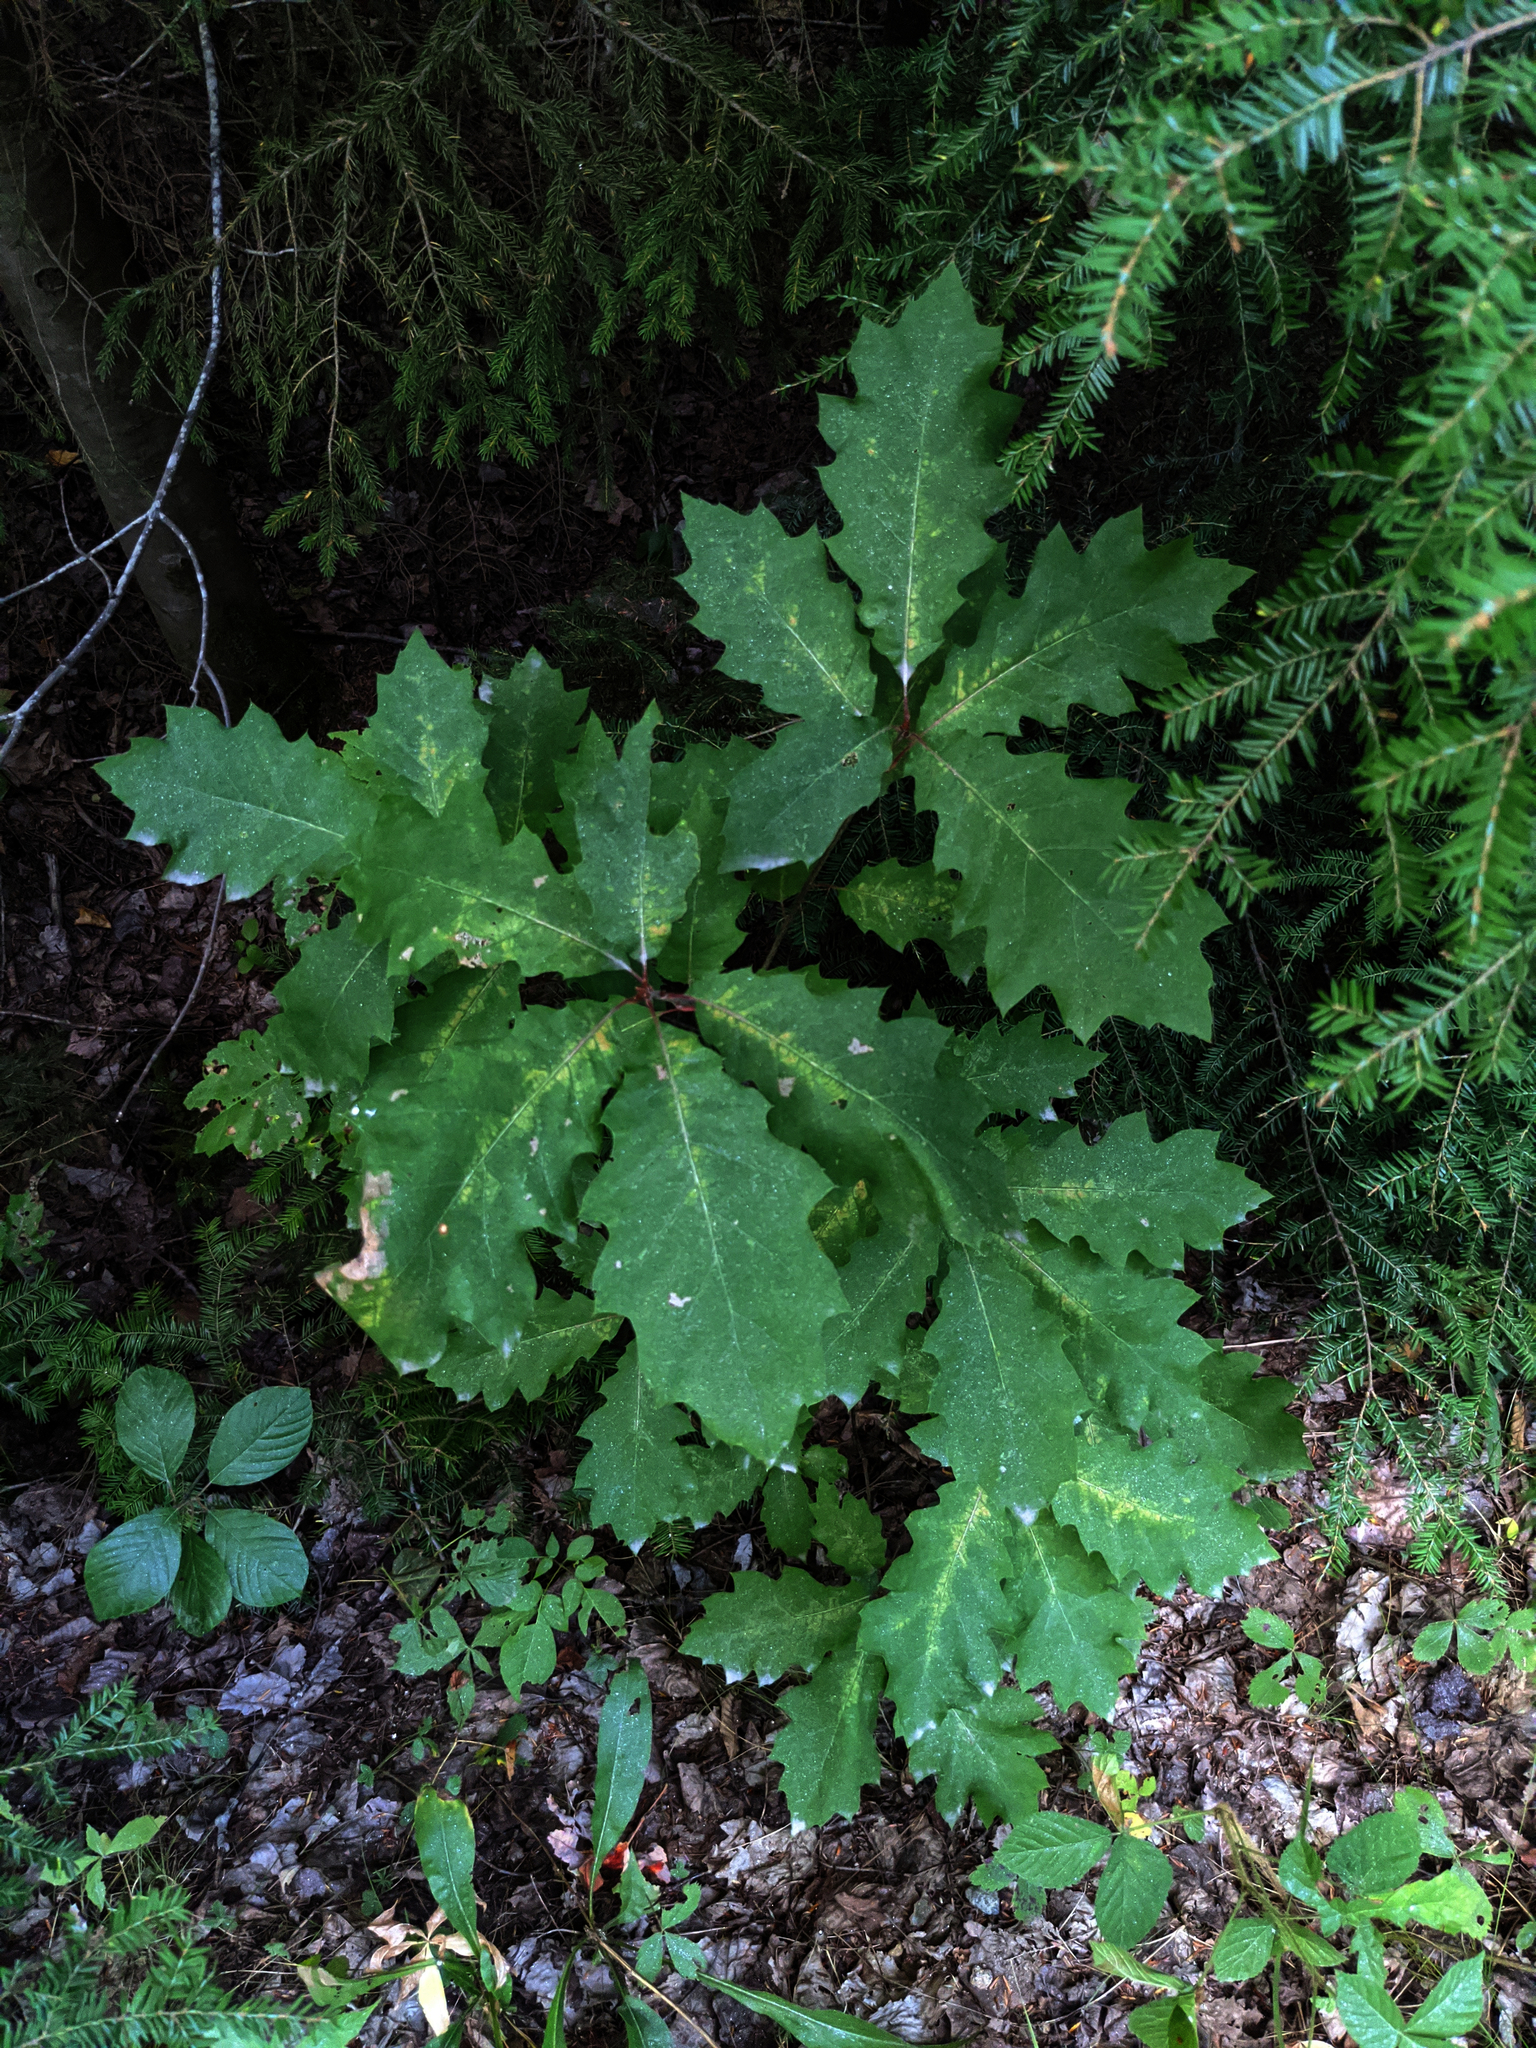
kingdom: Plantae
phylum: Tracheophyta
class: Pinopsida
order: Pinales
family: Pinaceae
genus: Tsuga
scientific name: Tsuga canadensis
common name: Eastern hemlock
